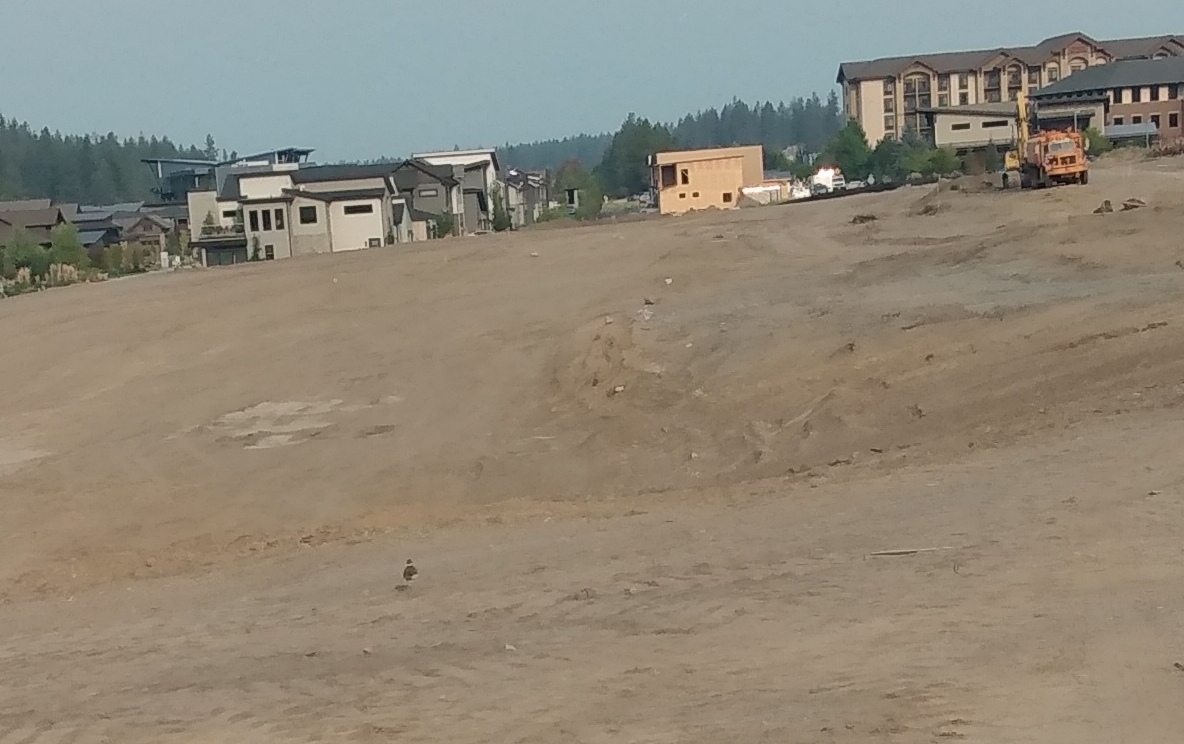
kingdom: Animalia
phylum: Chordata
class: Aves
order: Charadriiformes
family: Charadriidae
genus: Charadrius
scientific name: Charadrius vociferus
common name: Killdeer
